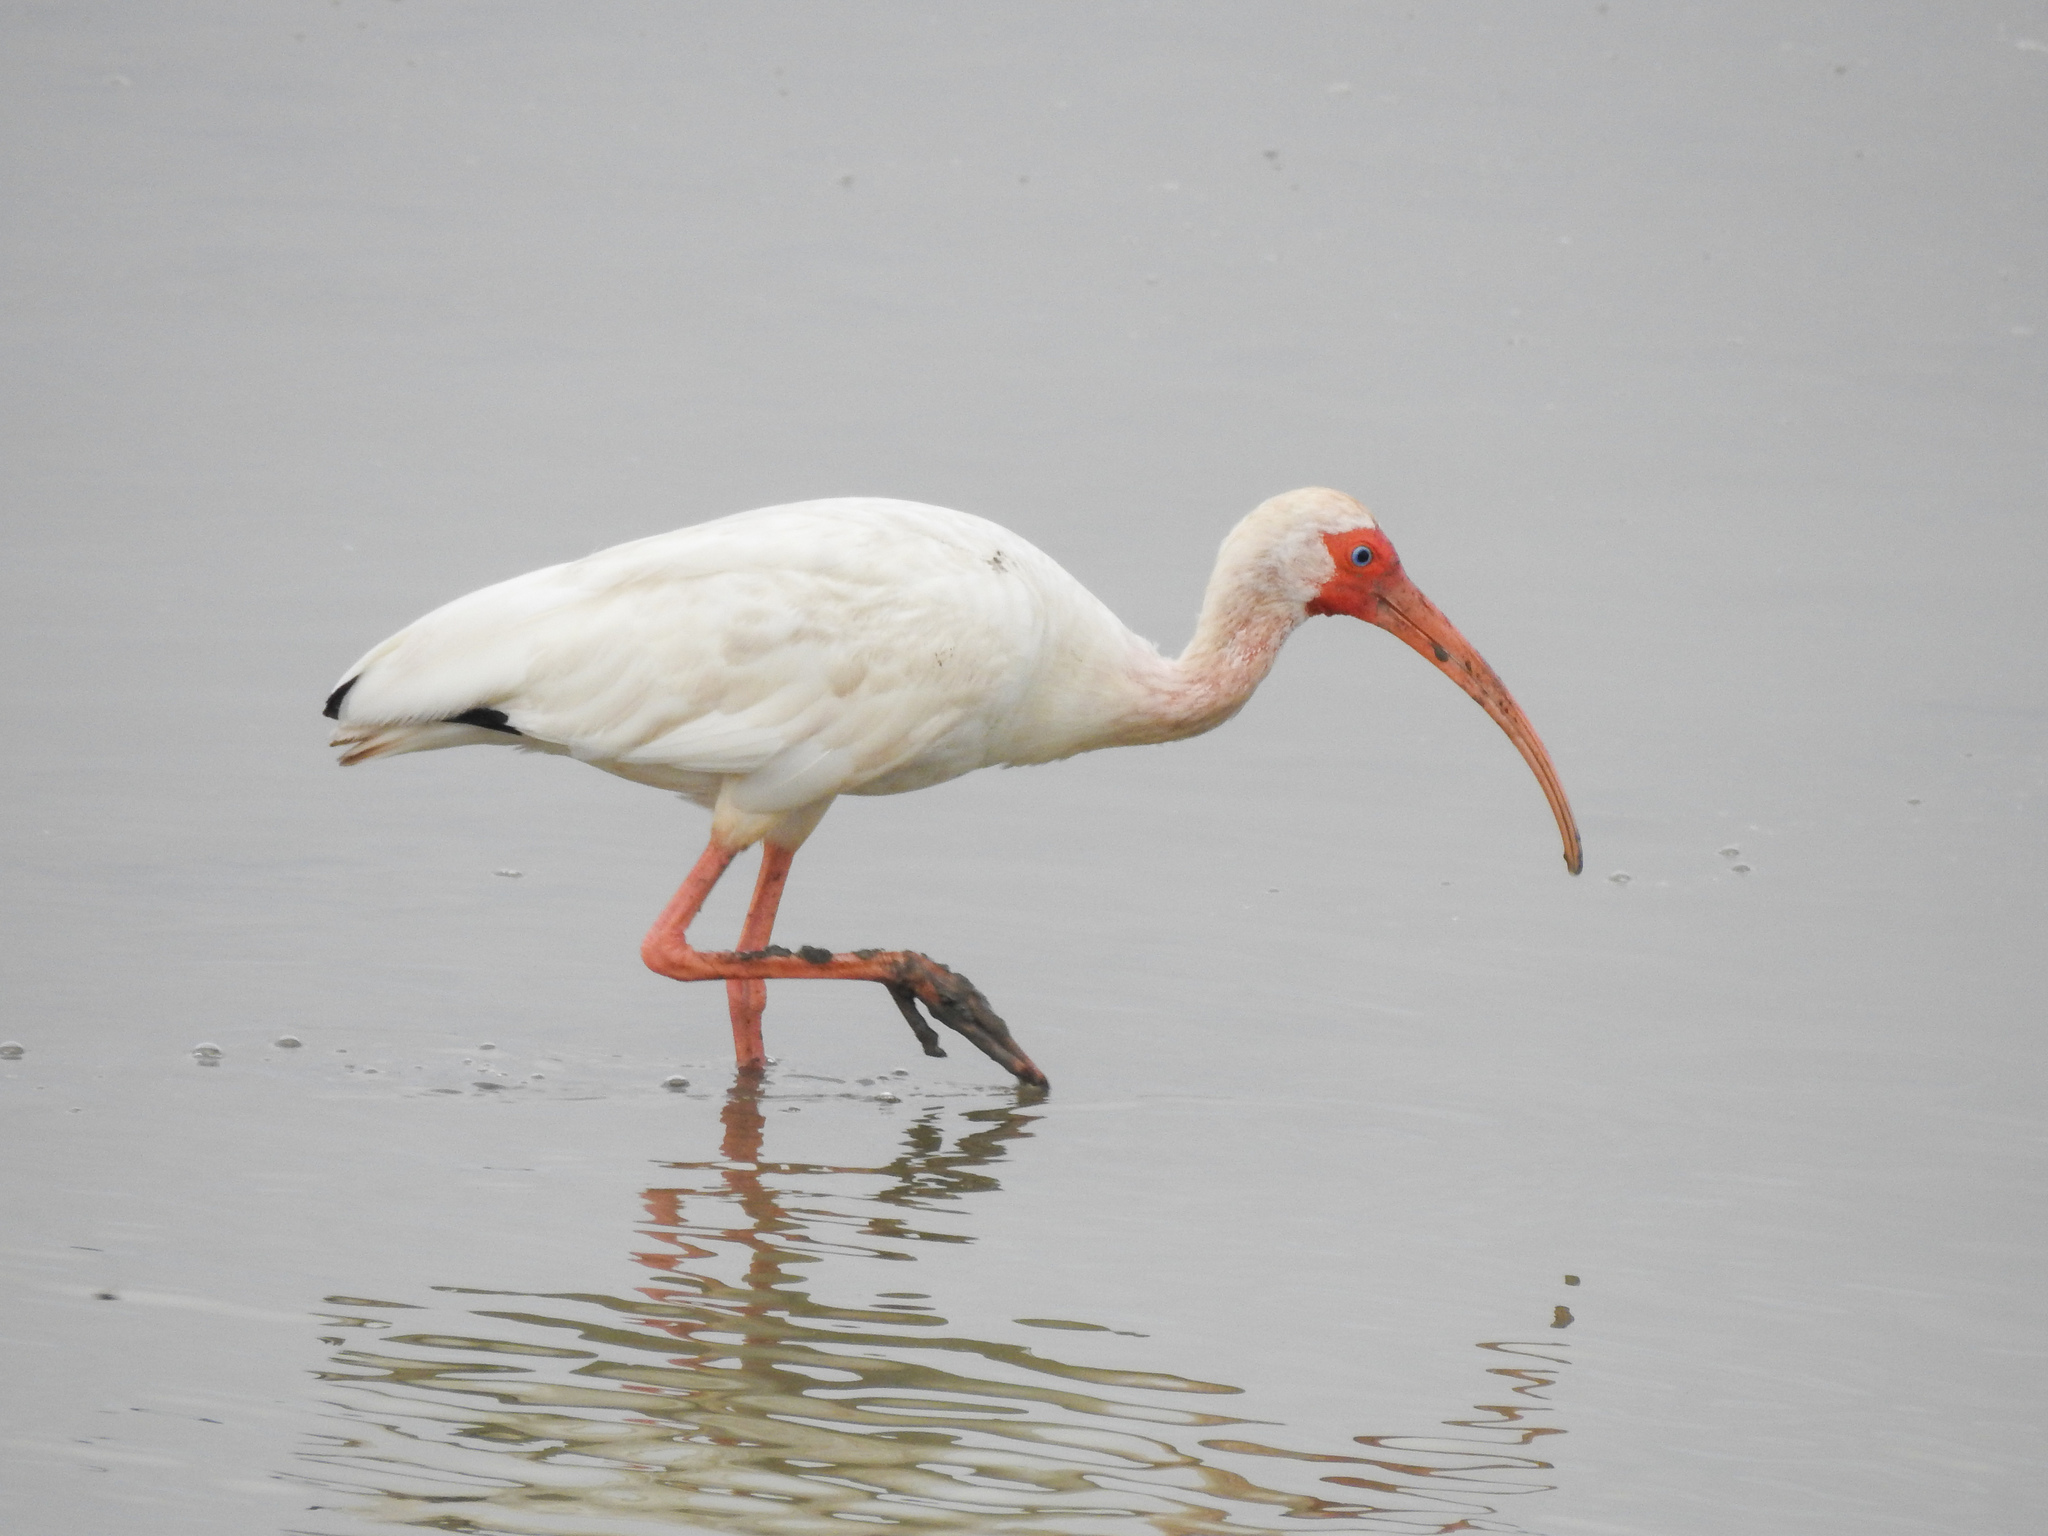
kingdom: Animalia
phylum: Chordata
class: Aves
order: Pelecaniformes
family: Threskiornithidae
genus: Eudocimus
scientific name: Eudocimus albus
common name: White ibis
